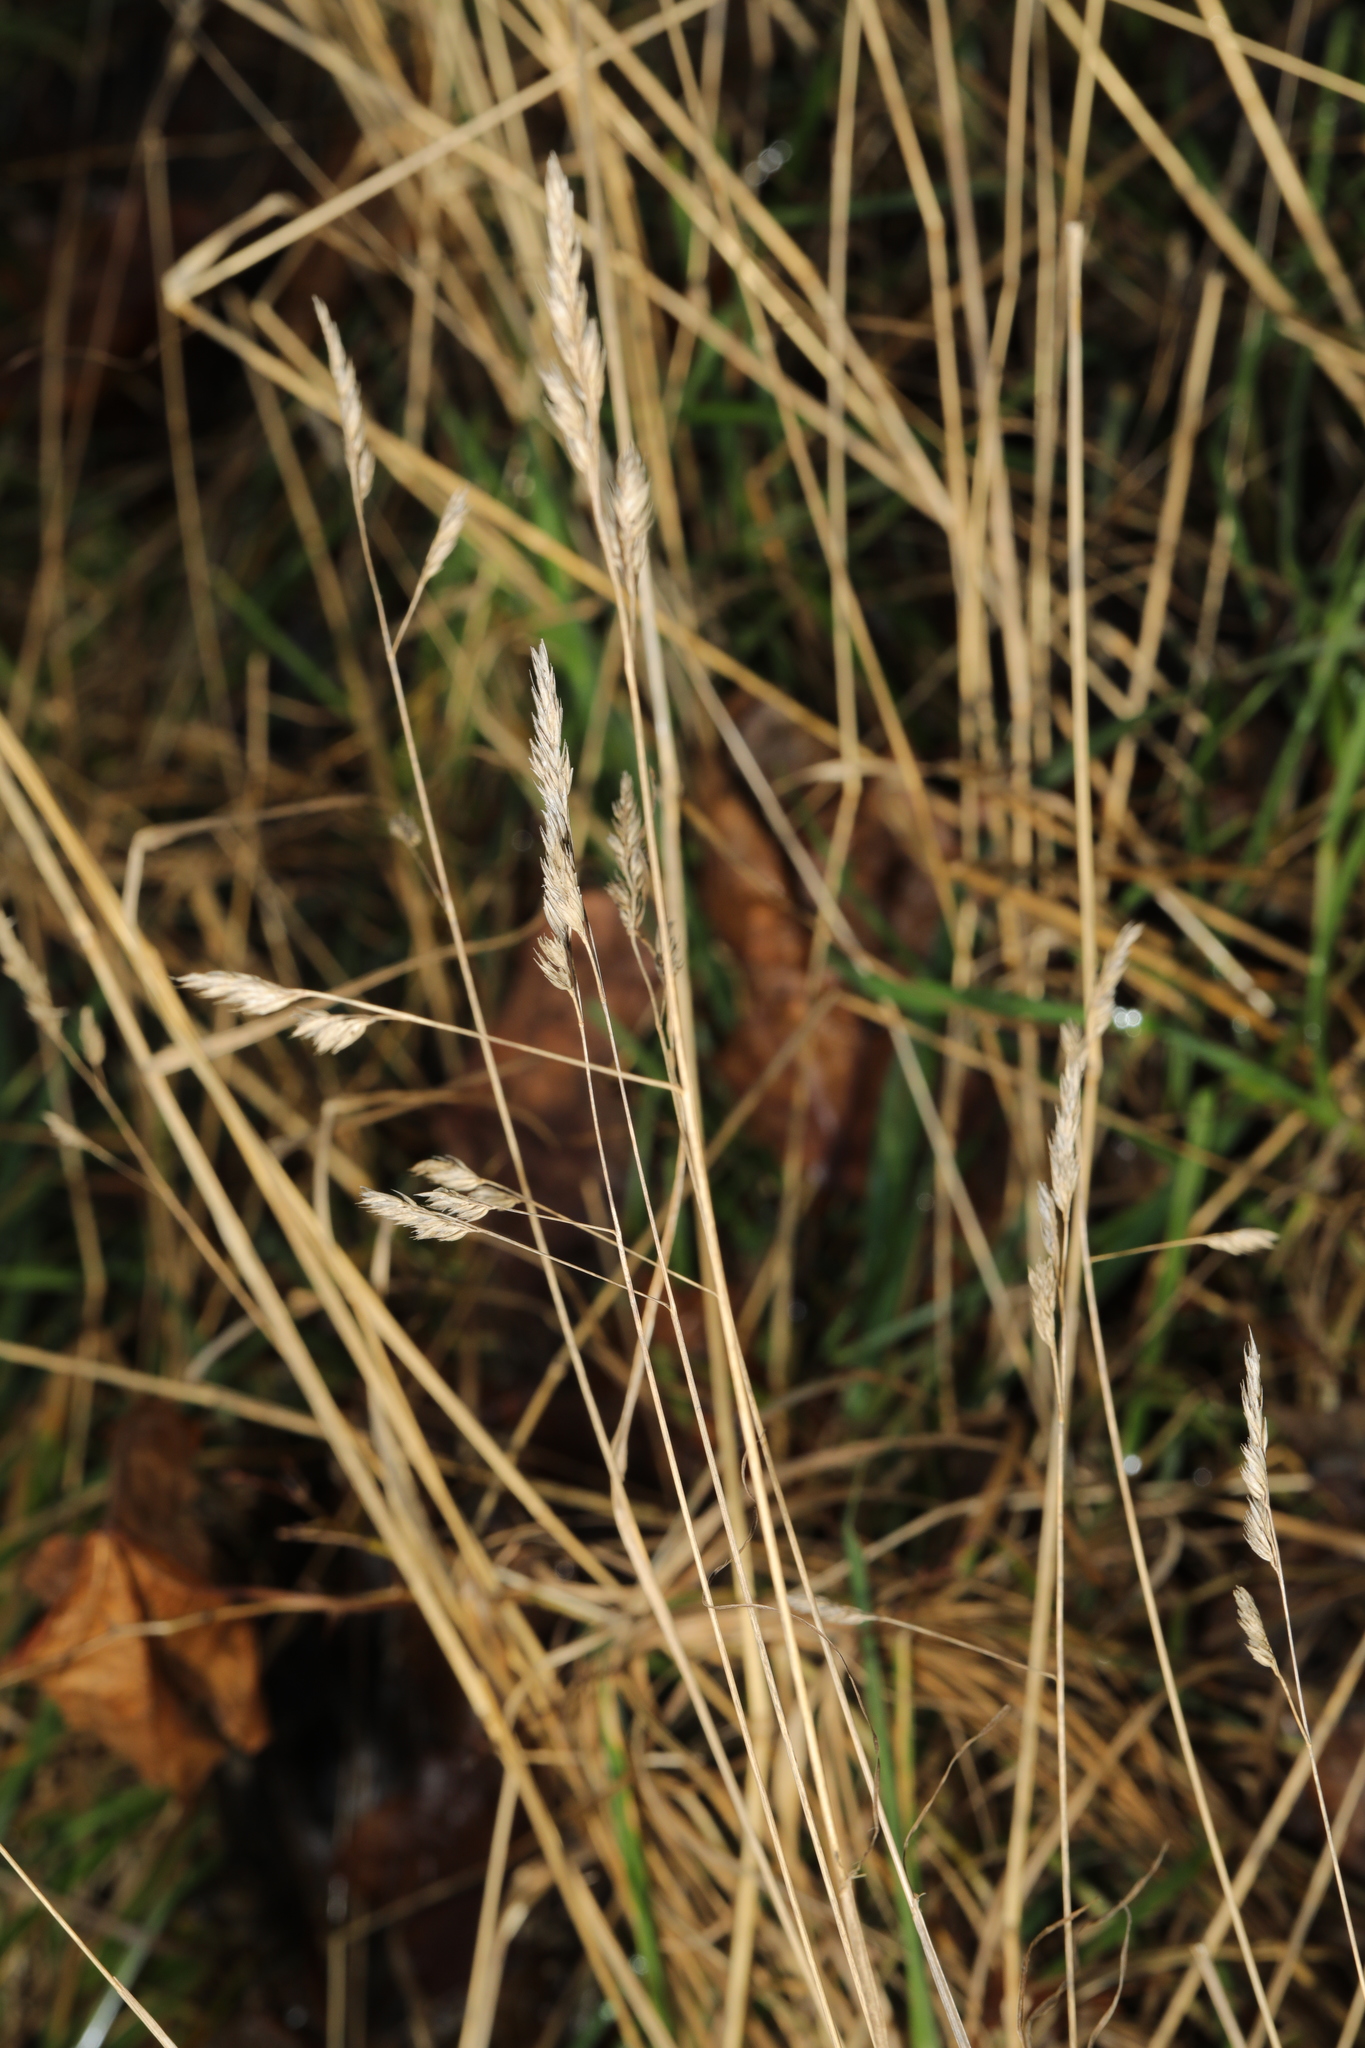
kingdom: Plantae
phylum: Tracheophyta
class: Liliopsida
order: Poales
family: Poaceae
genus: Dactylis
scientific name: Dactylis glomerata
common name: Orchardgrass
